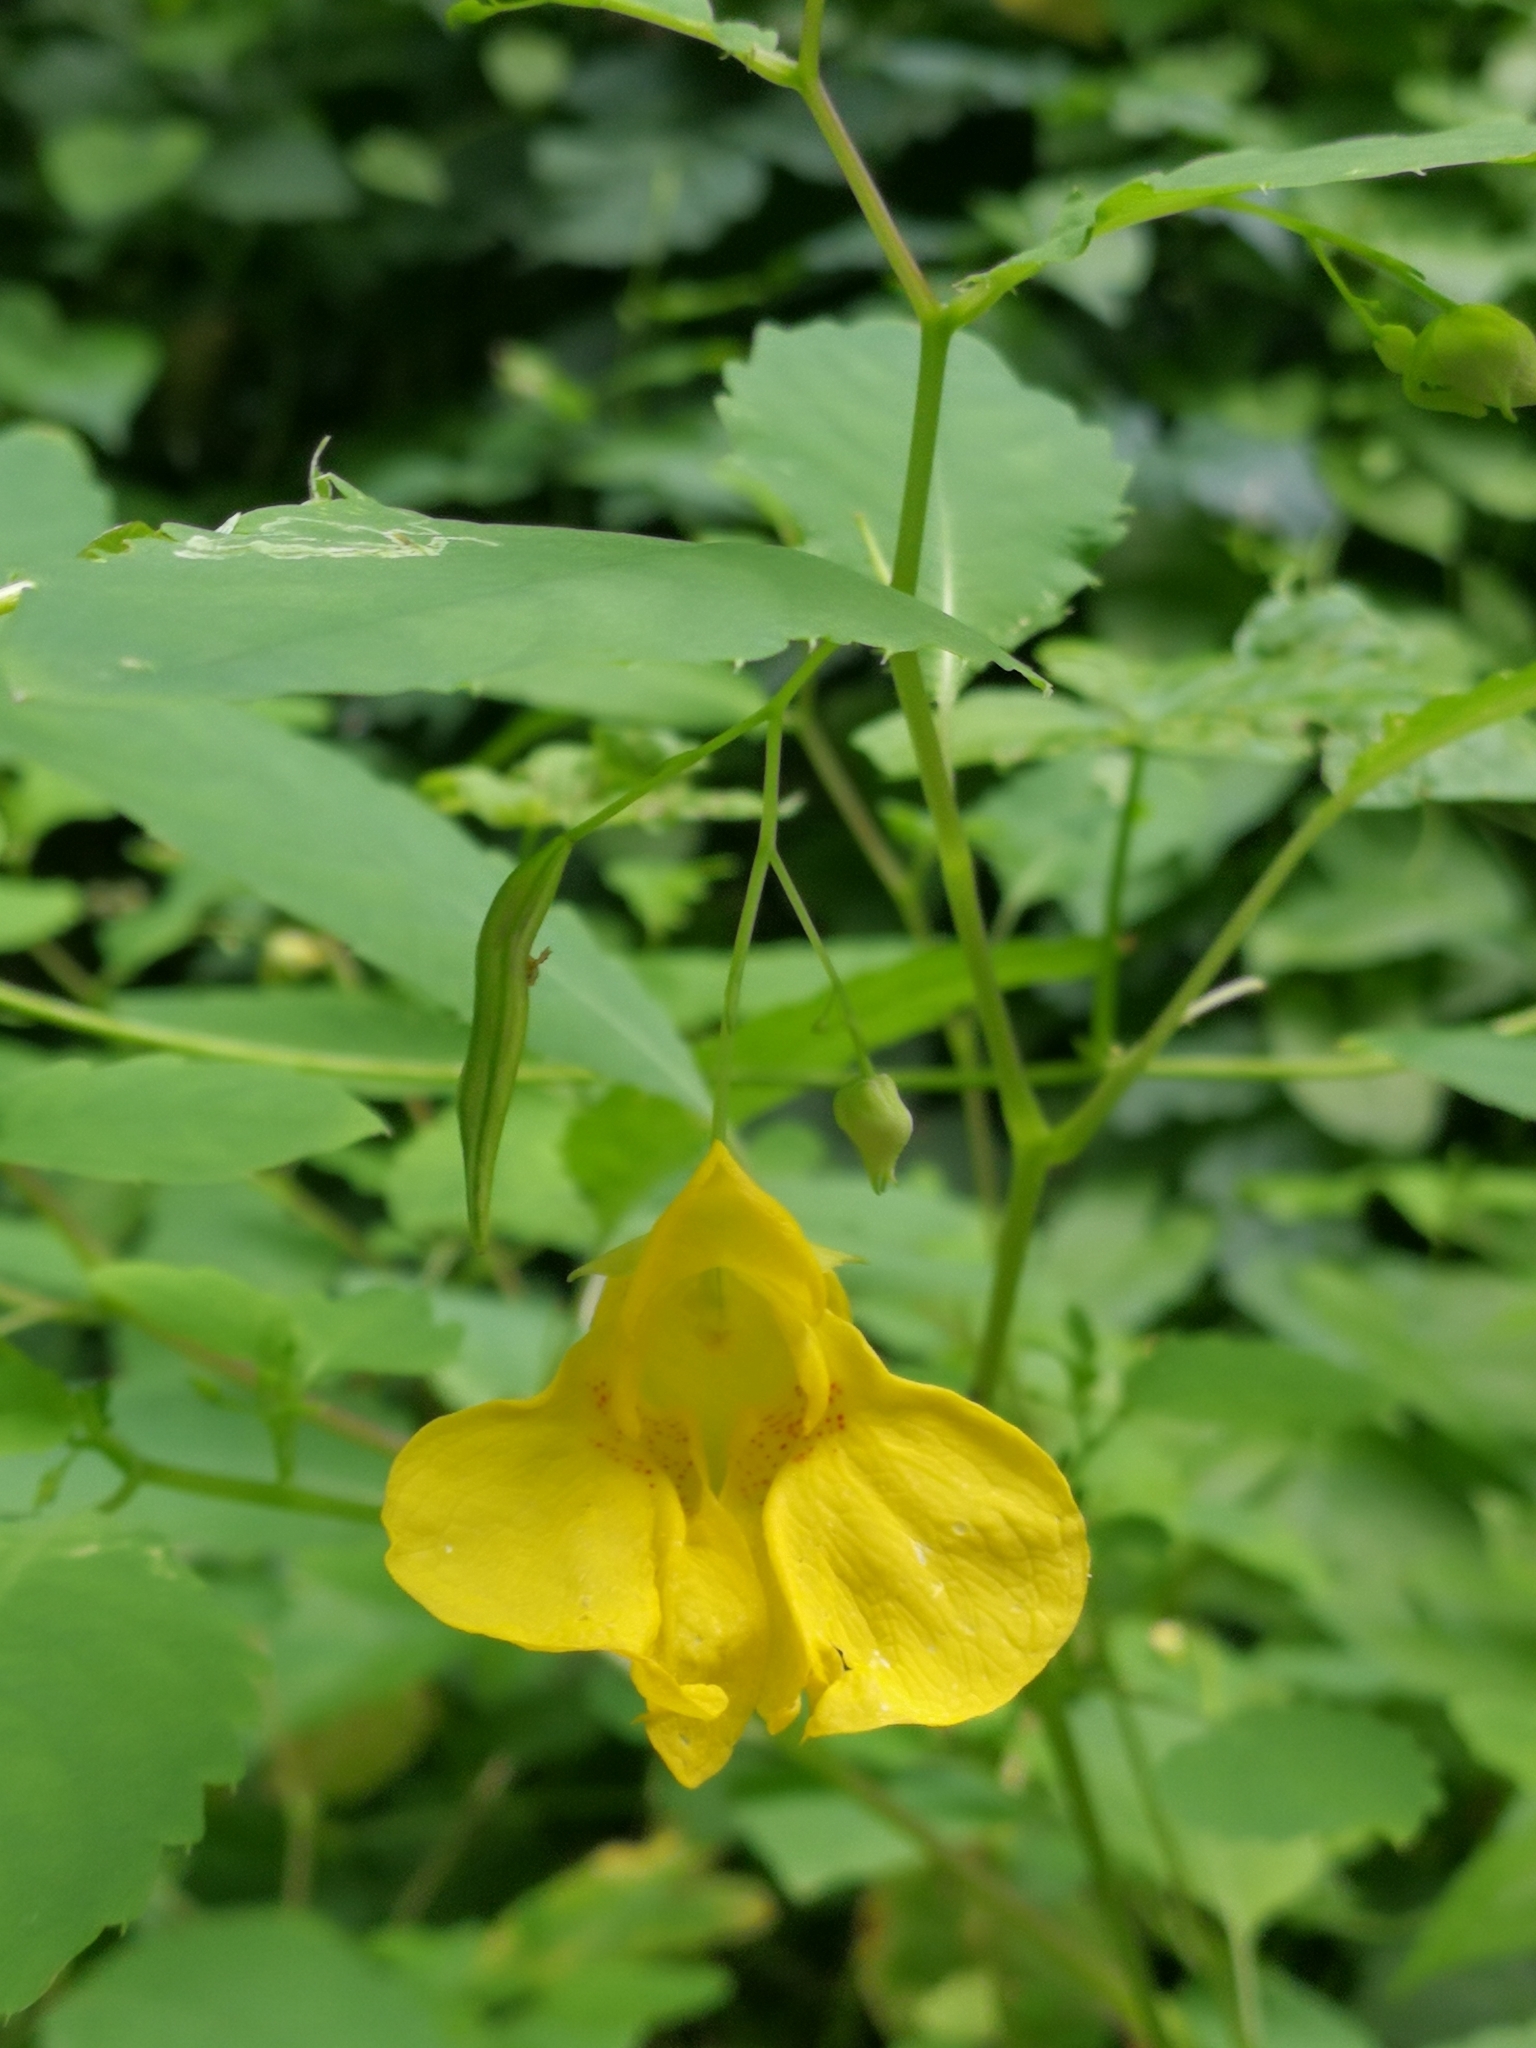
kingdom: Plantae
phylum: Tracheophyta
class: Magnoliopsida
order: Ericales
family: Balsaminaceae
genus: Impatiens
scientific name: Impatiens noli-tangere
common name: Touch-me-not balsam
